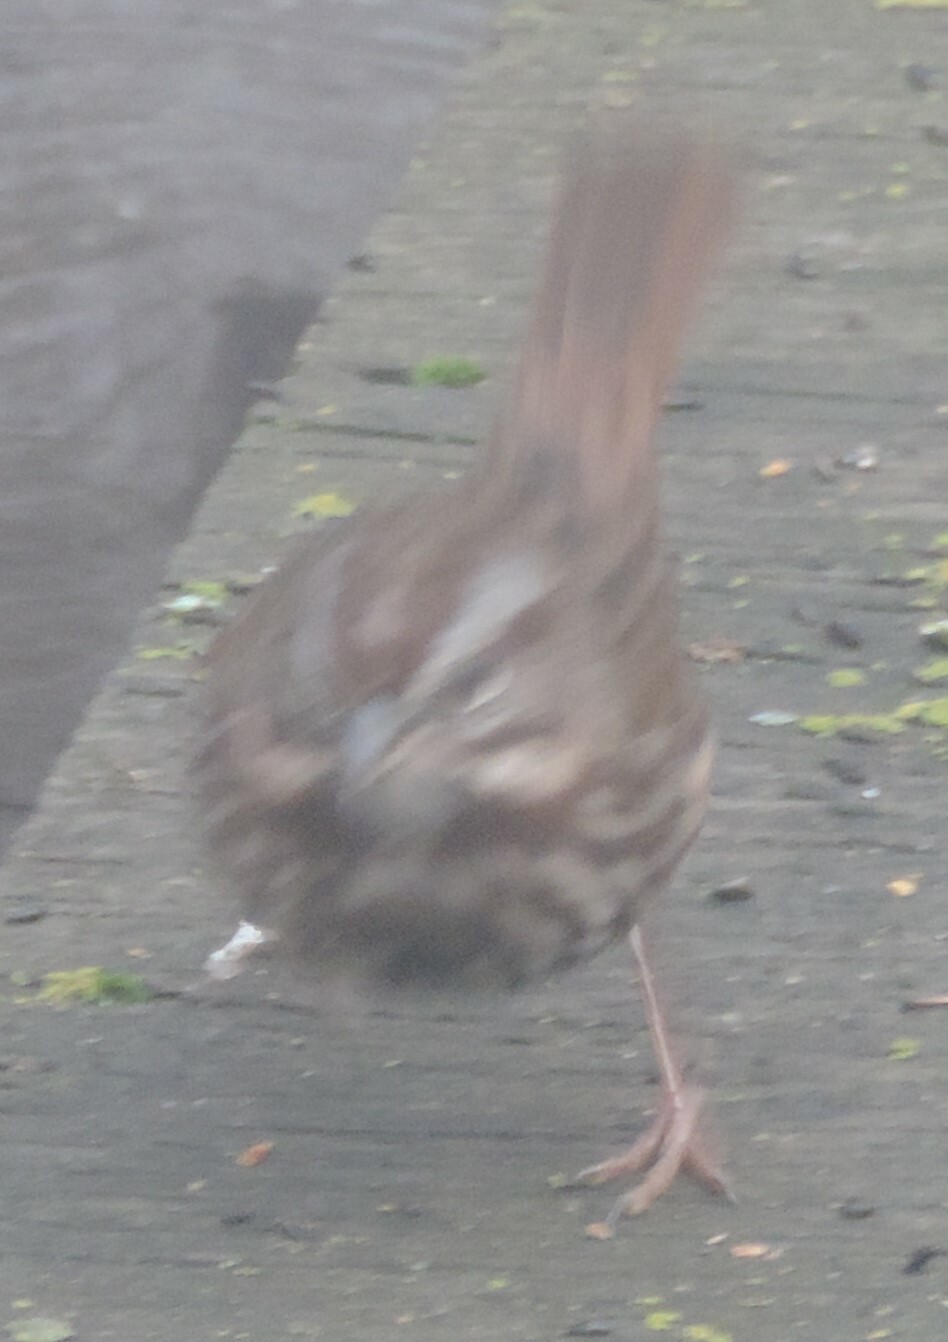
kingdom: Animalia
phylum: Chordata
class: Aves
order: Passeriformes
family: Passerellidae
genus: Melospiza
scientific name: Melospiza melodia
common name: Song sparrow
